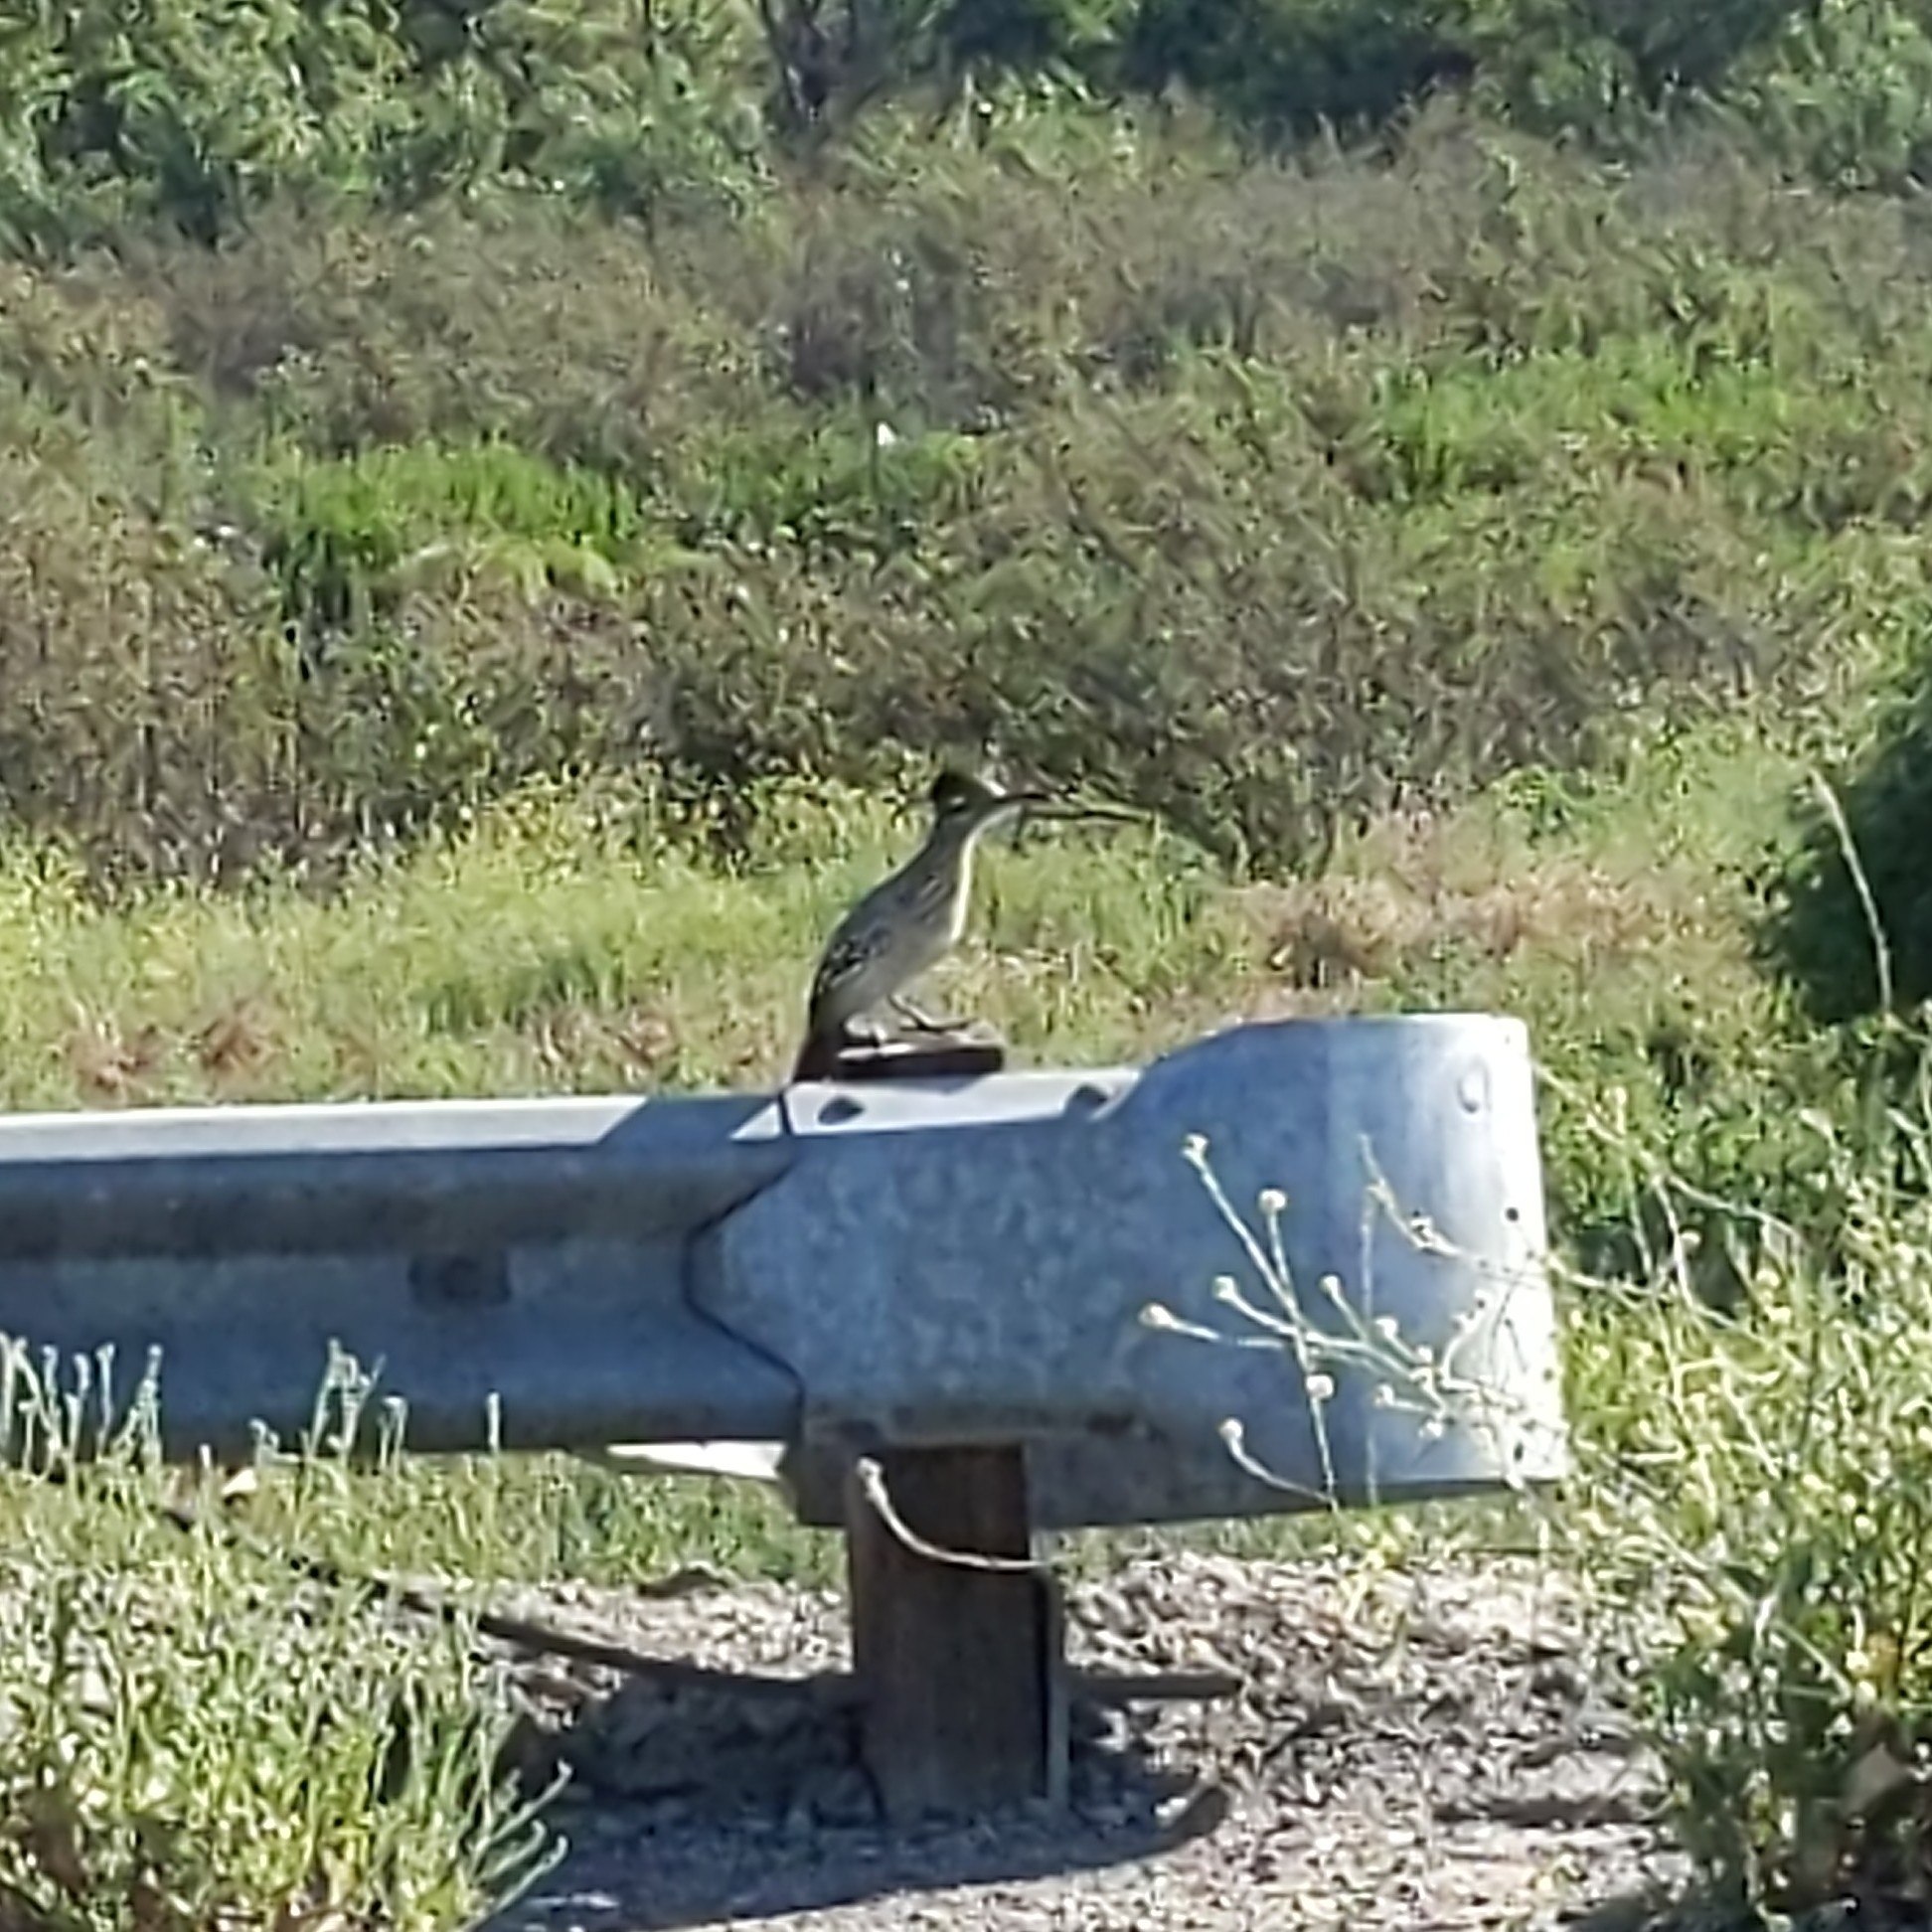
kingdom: Animalia
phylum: Chordata
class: Aves
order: Cuculiformes
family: Cuculidae
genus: Geococcyx
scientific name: Geococcyx californianus
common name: Greater roadrunner
